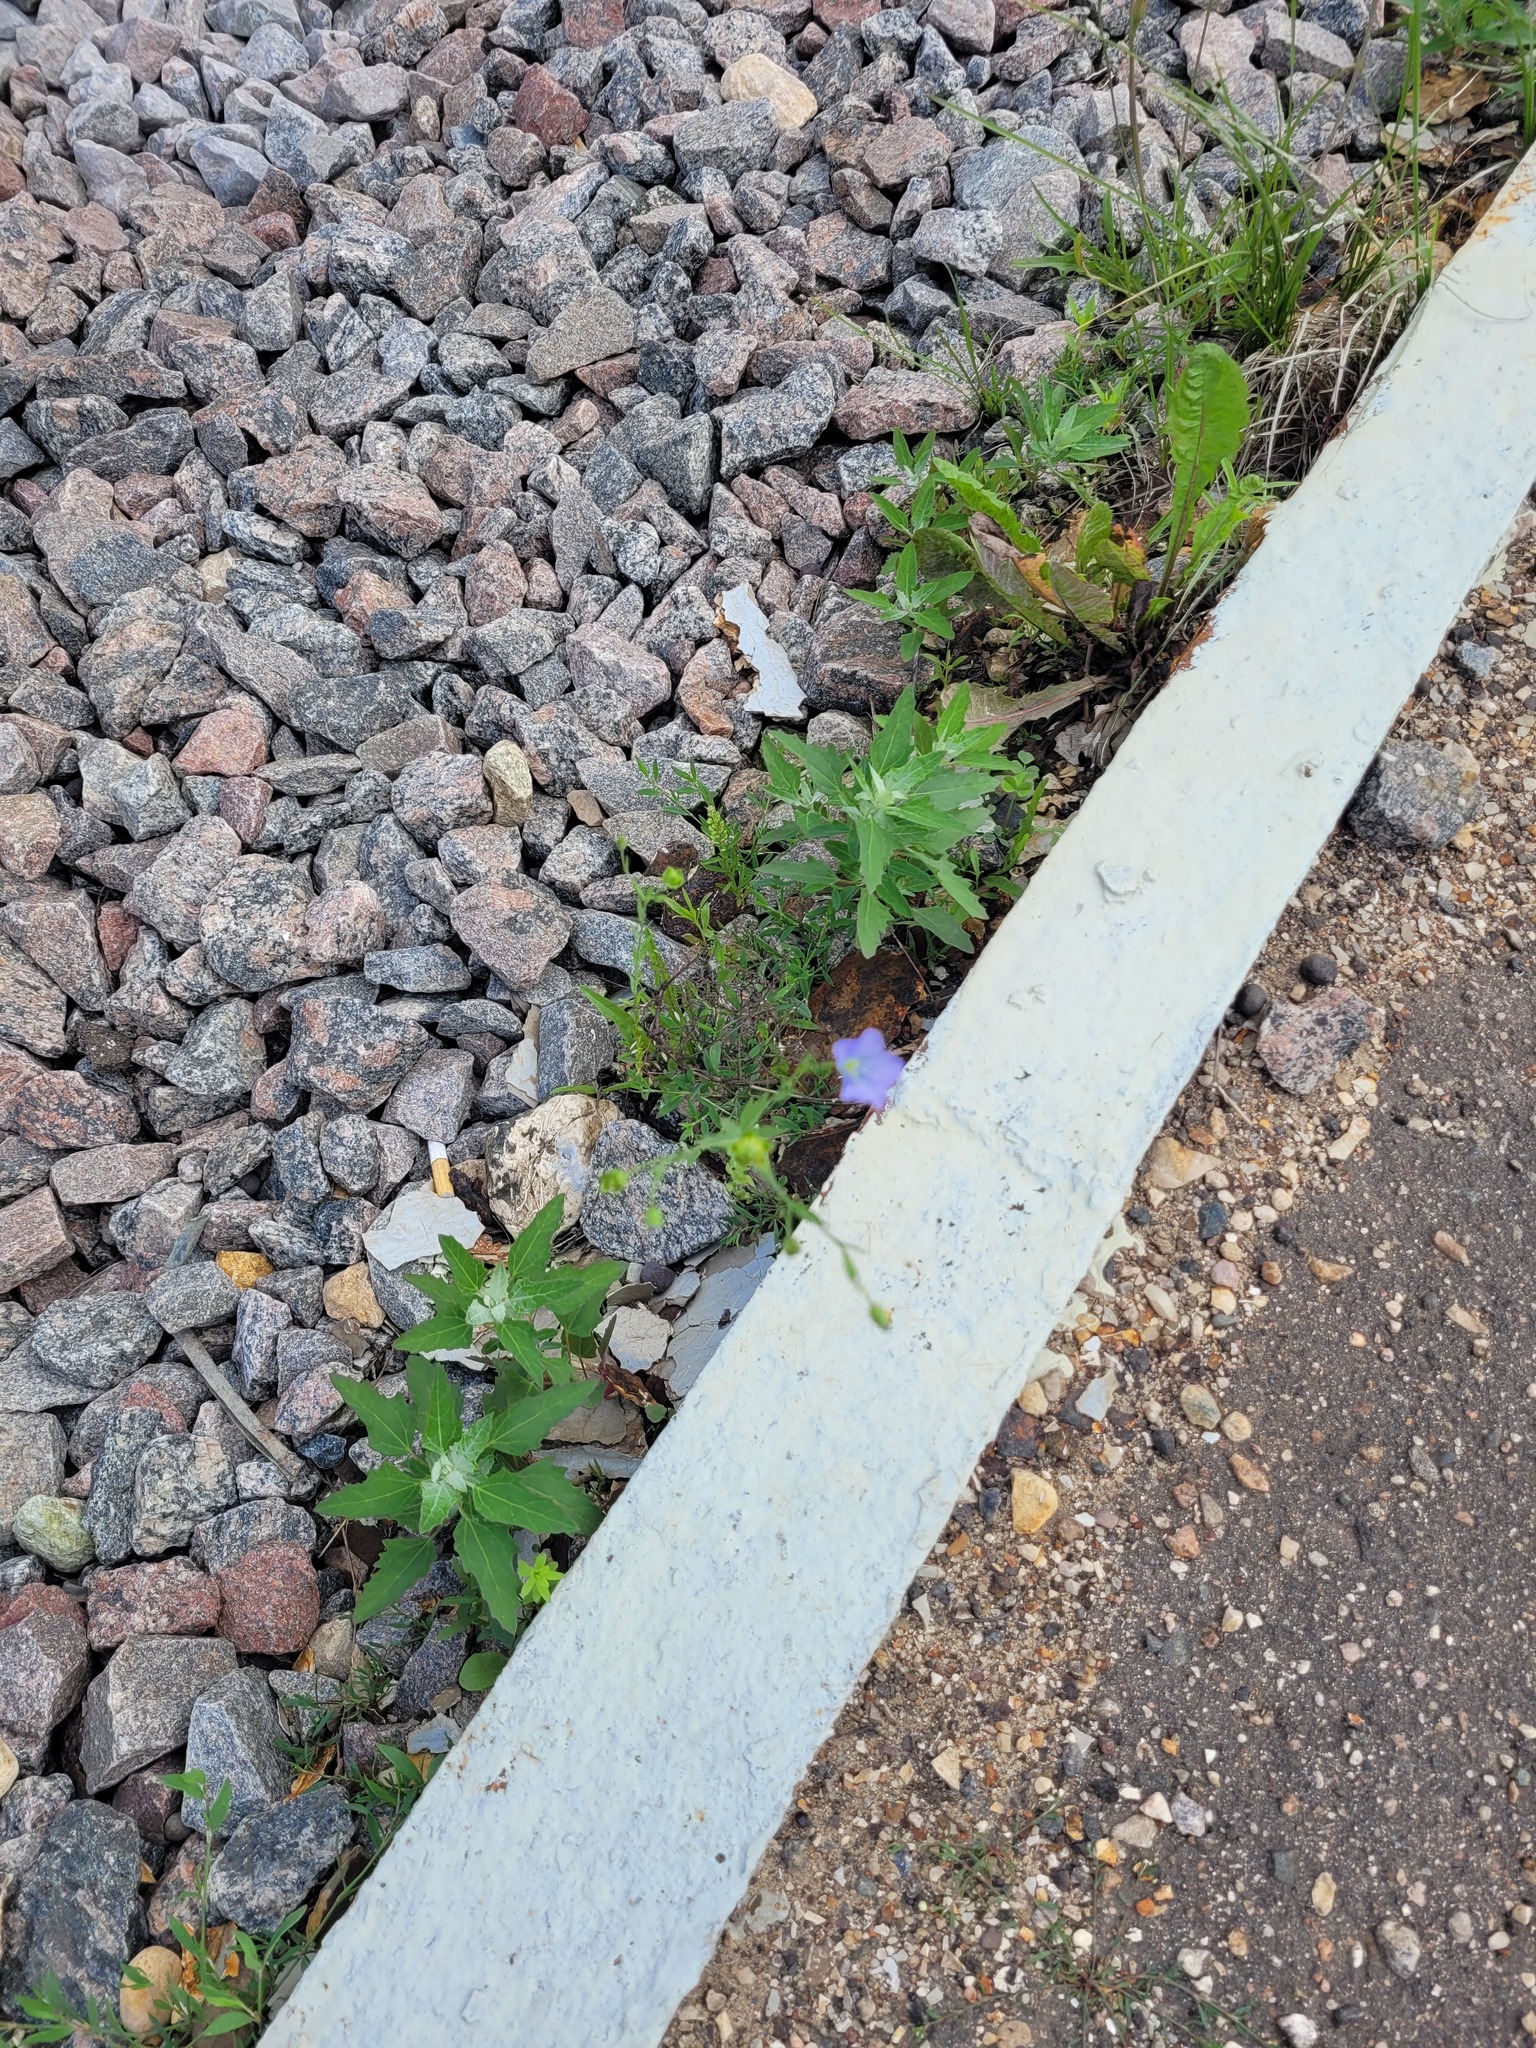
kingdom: Plantae
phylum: Tracheophyta
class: Magnoliopsida
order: Malpighiales
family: Linaceae
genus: Linum
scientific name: Linum usitatissimum
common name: Flax
